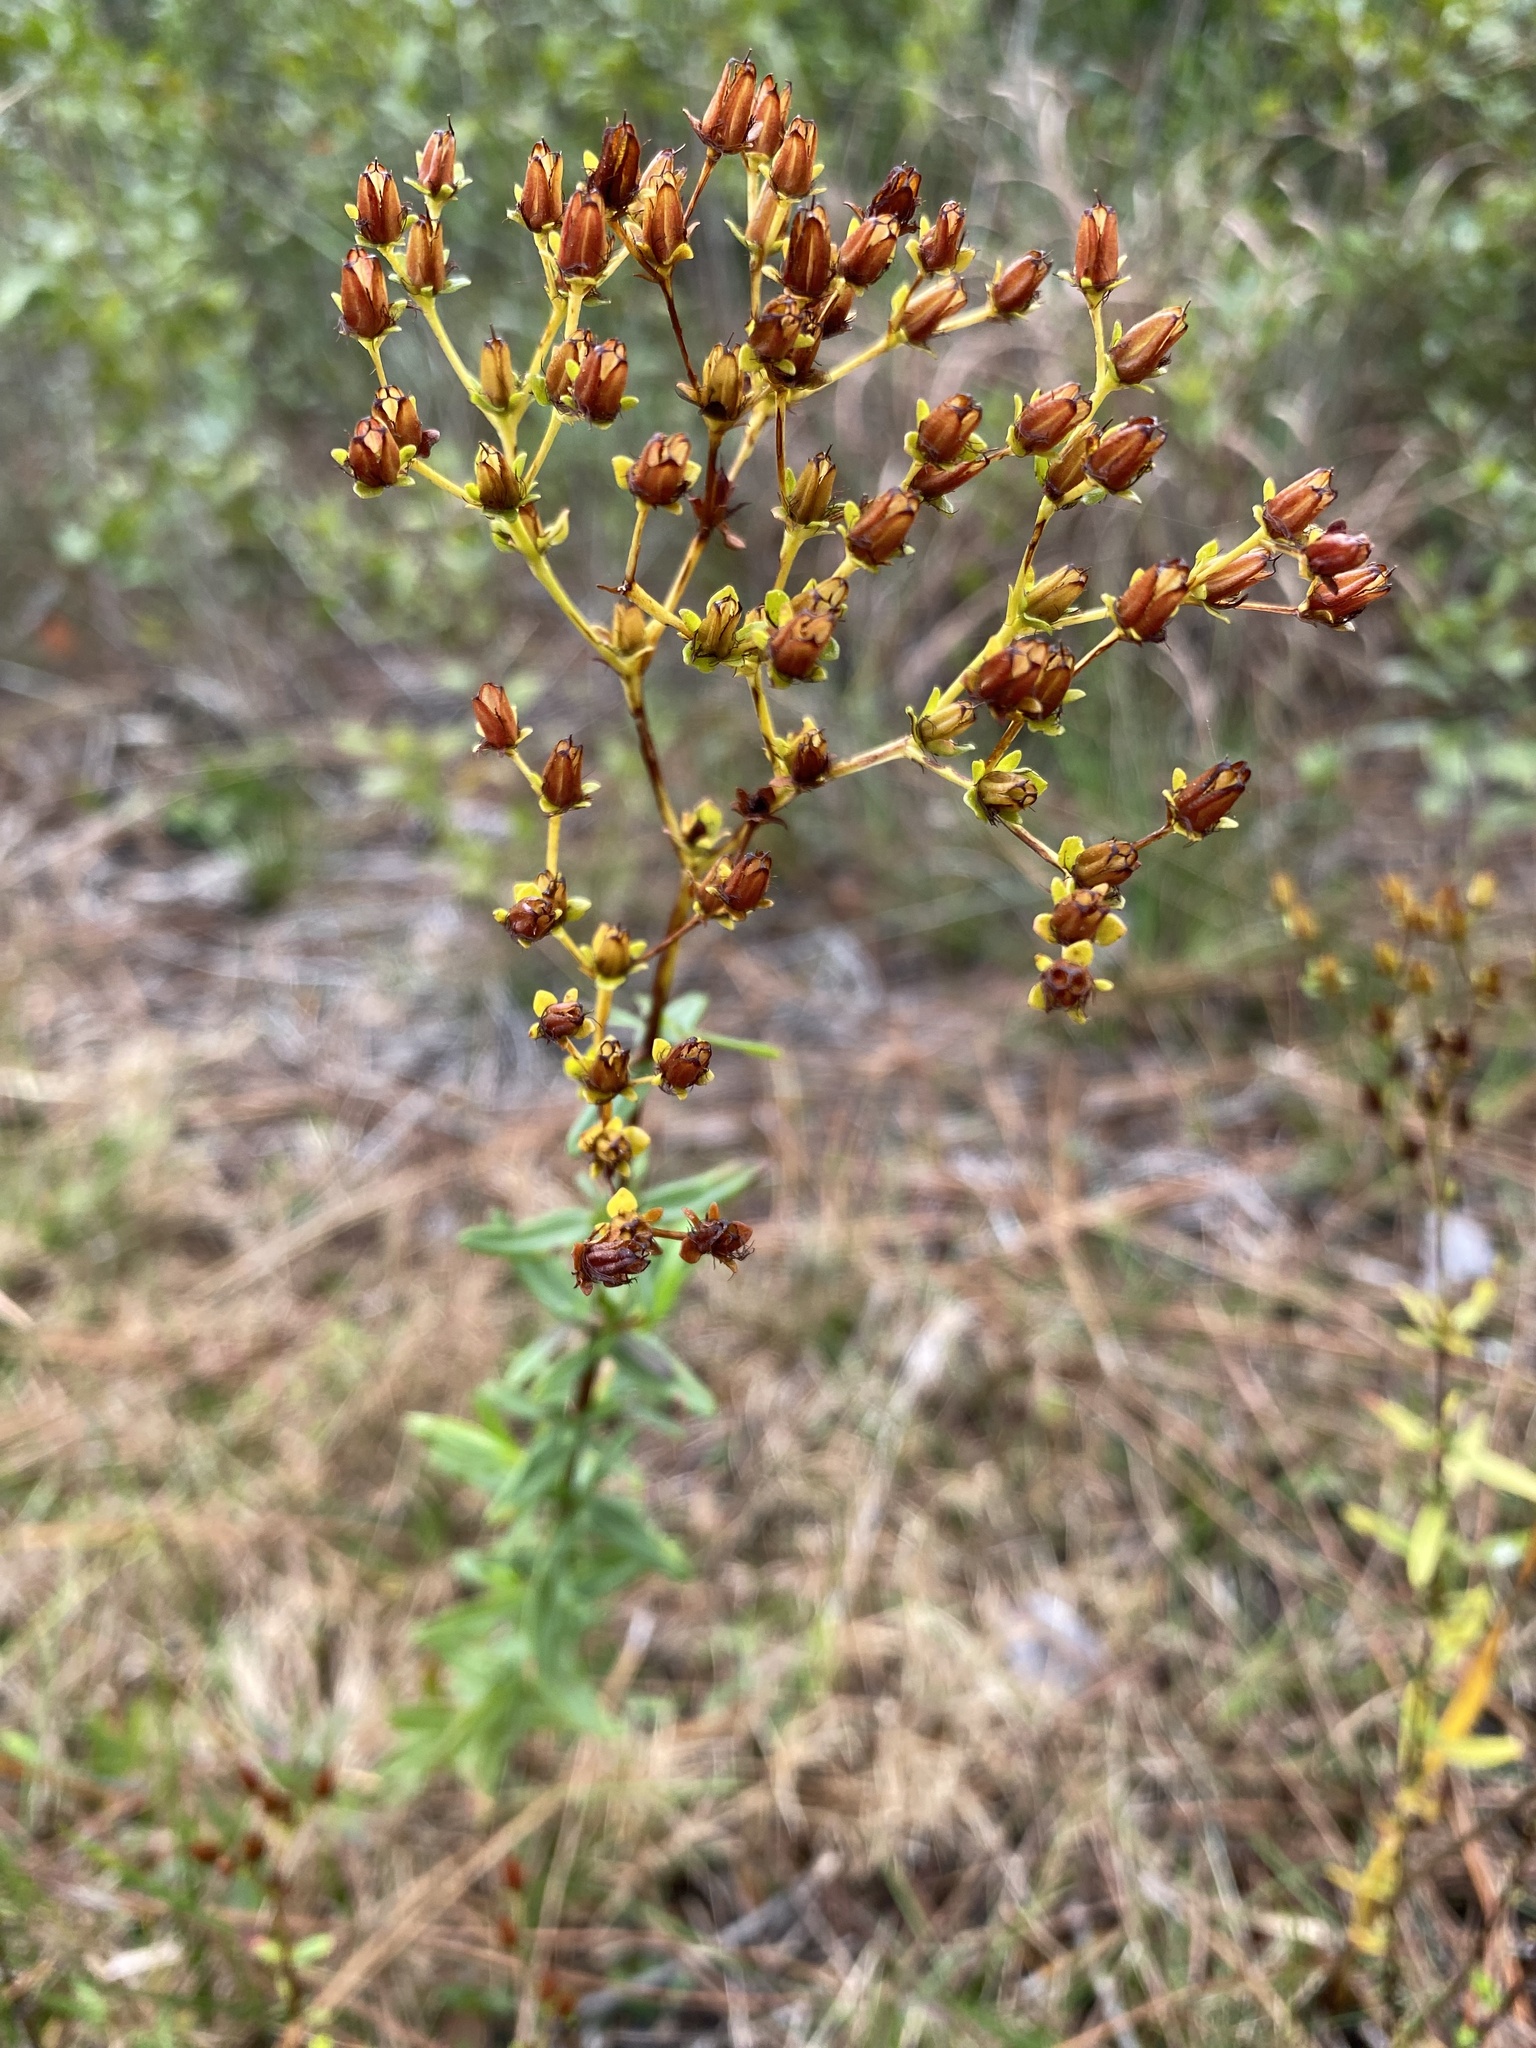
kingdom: Plantae
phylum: Tracheophyta
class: Magnoliopsida
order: Malpighiales
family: Hypericaceae
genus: Hypericum
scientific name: Hypericum cistifolium
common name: Round-pod st. john's-wort
